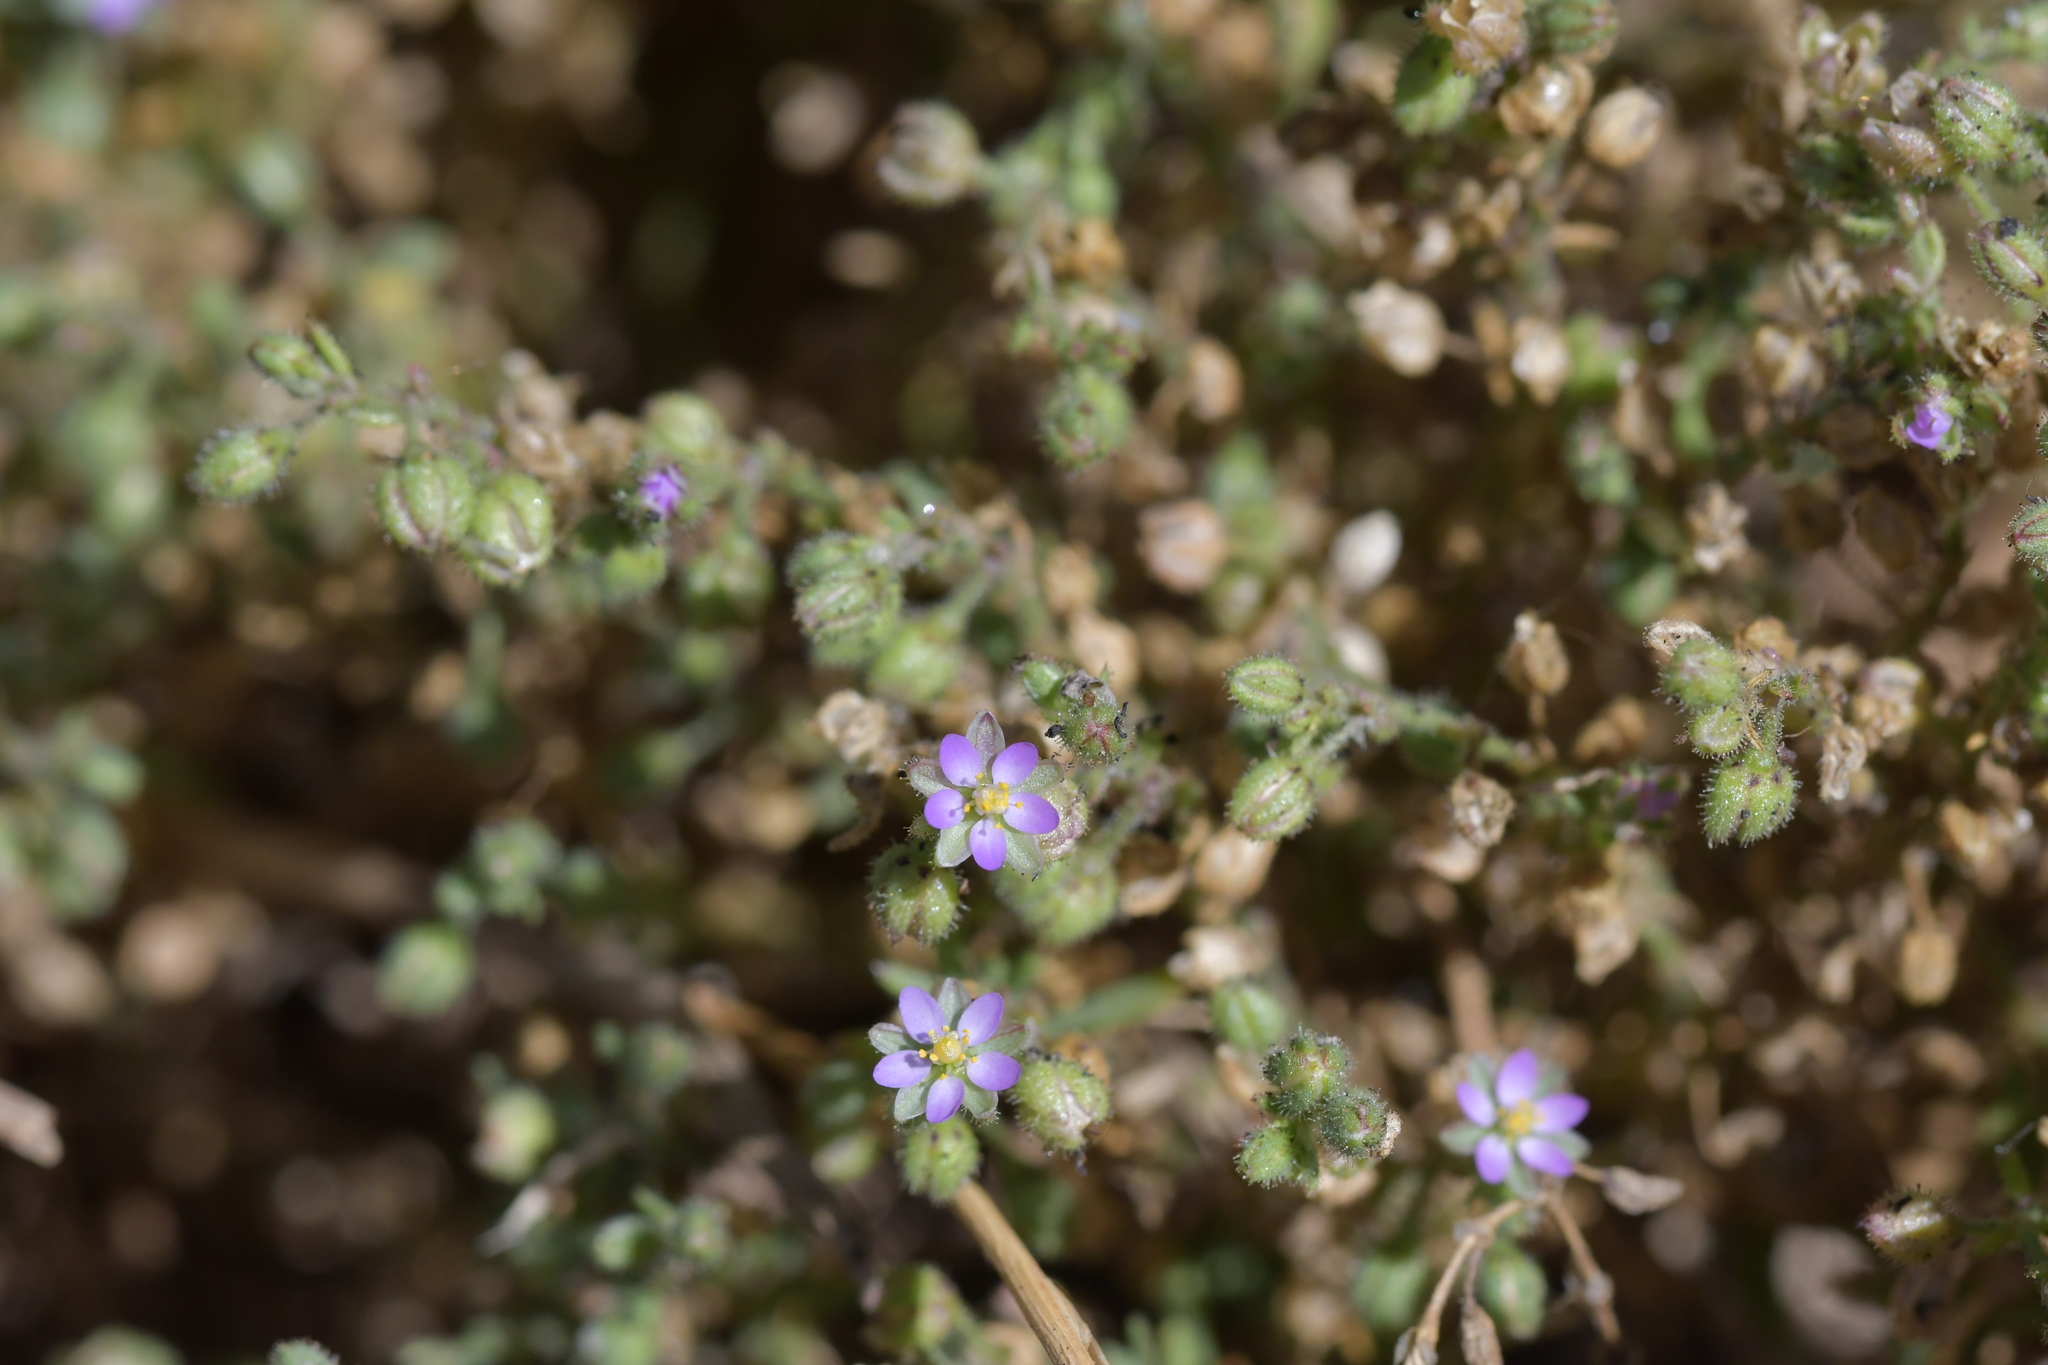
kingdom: Plantae
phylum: Tracheophyta
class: Magnoliopsida
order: Caryophyllales
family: Caryophyllaceae
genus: Spergularia
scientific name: Spergularia rubra
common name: Red sand-spurrey
